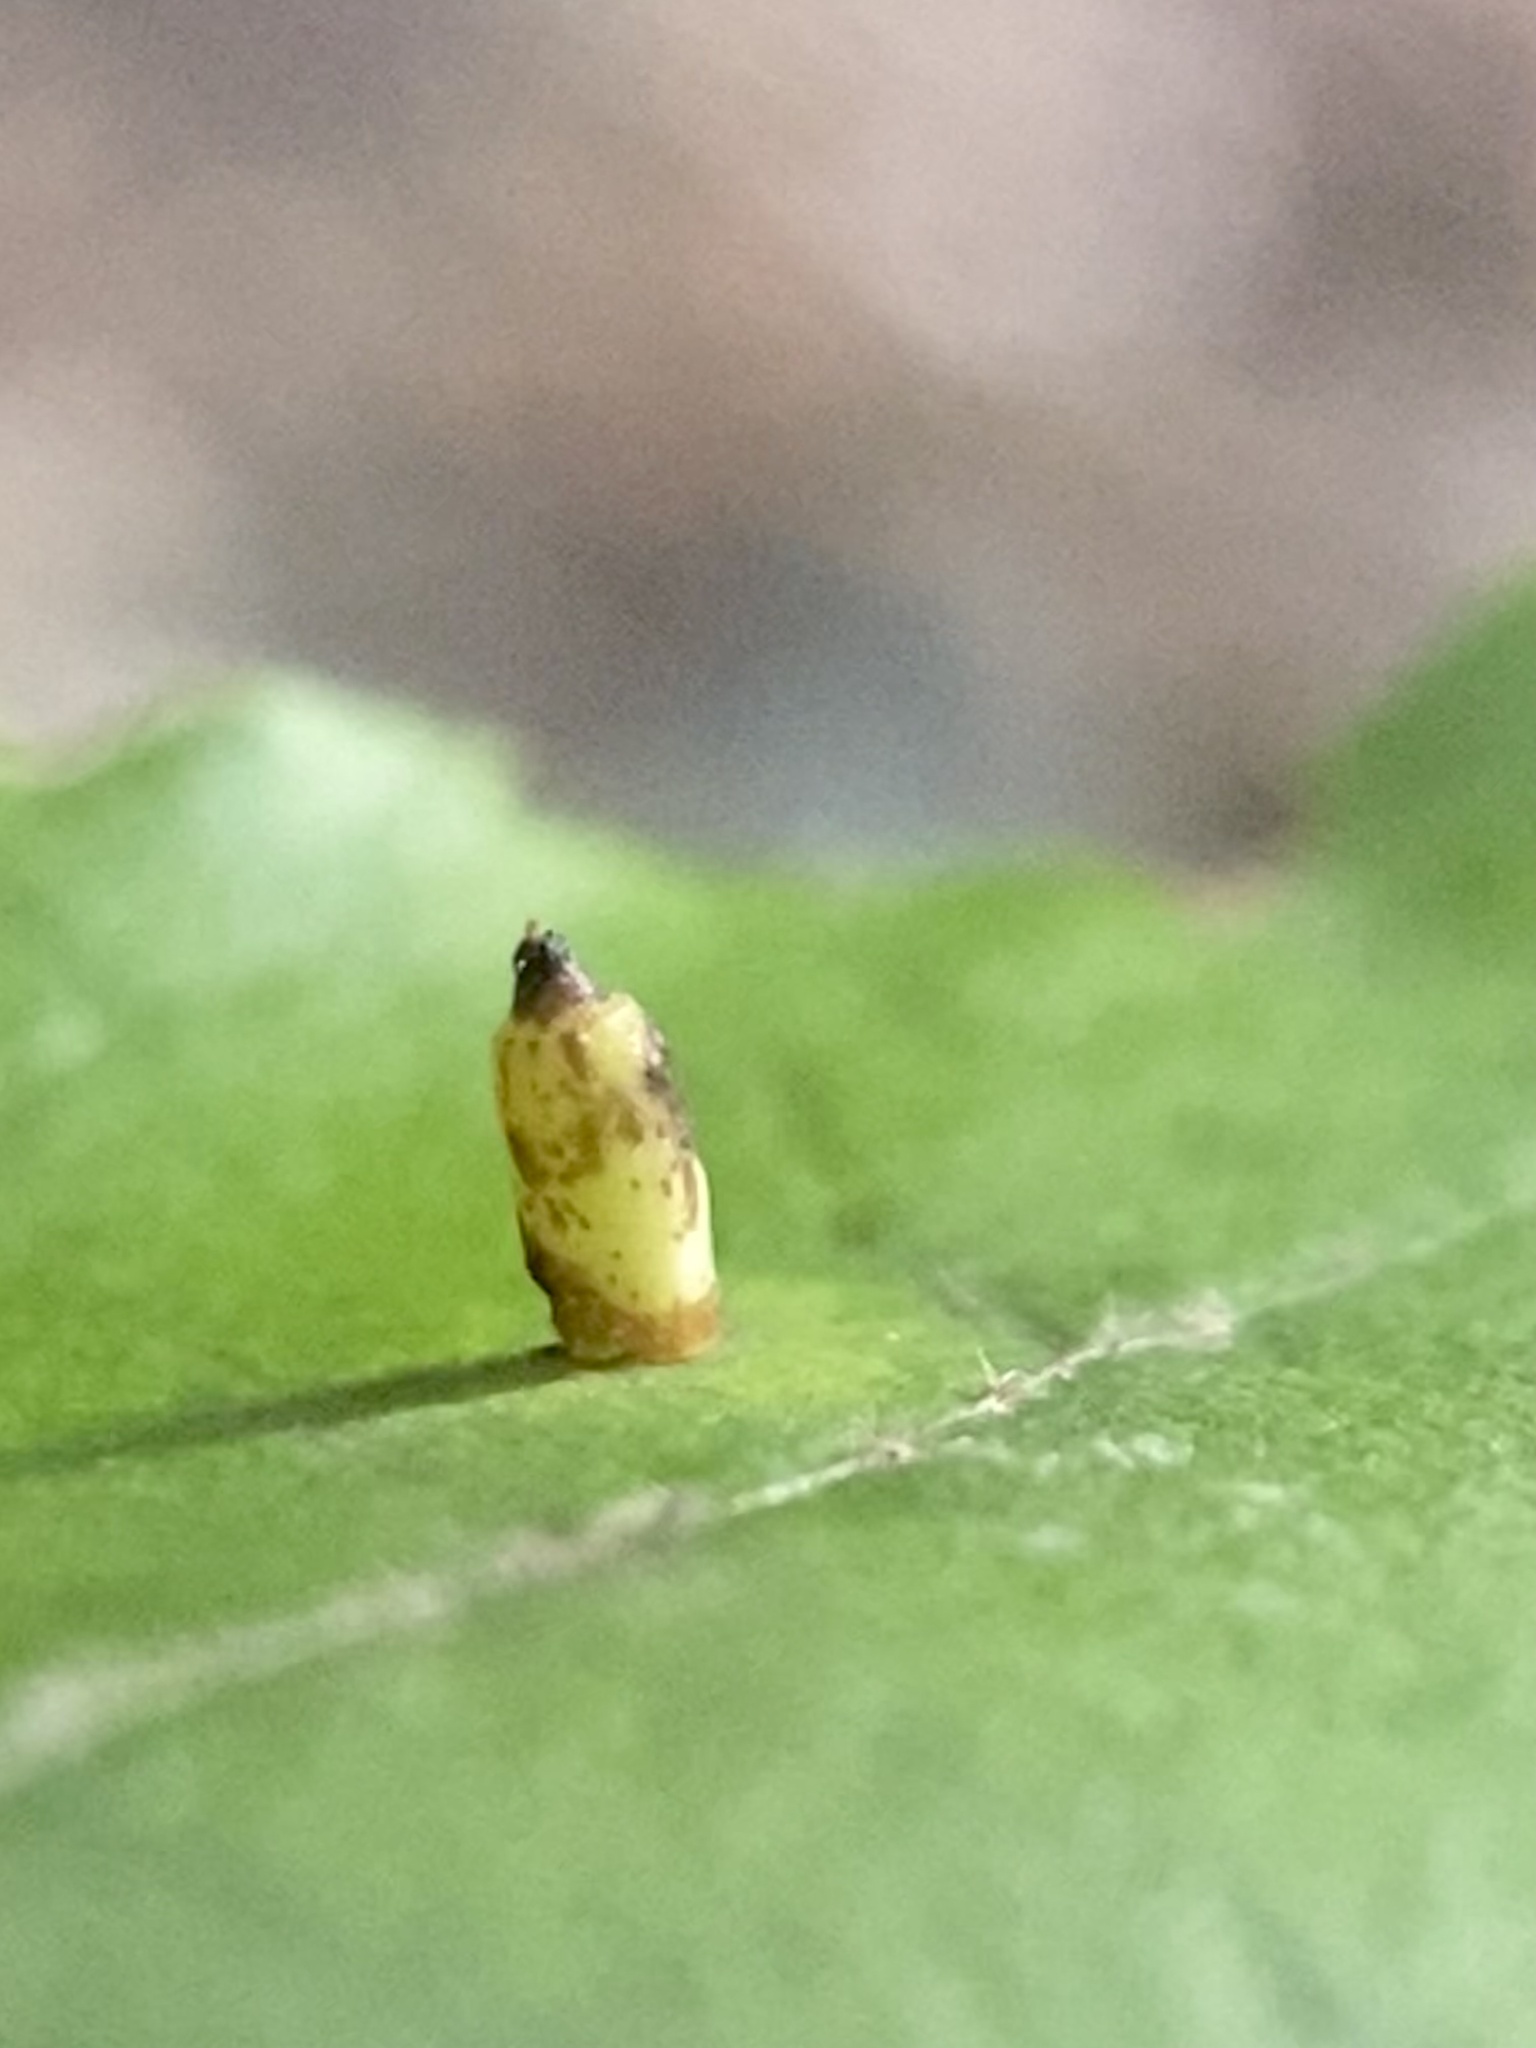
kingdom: Animalia
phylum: Arthropoda
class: Insecta
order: Diptera
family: Cecidomyiidae
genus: Caryomyia
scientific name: Caryomyia urnula
